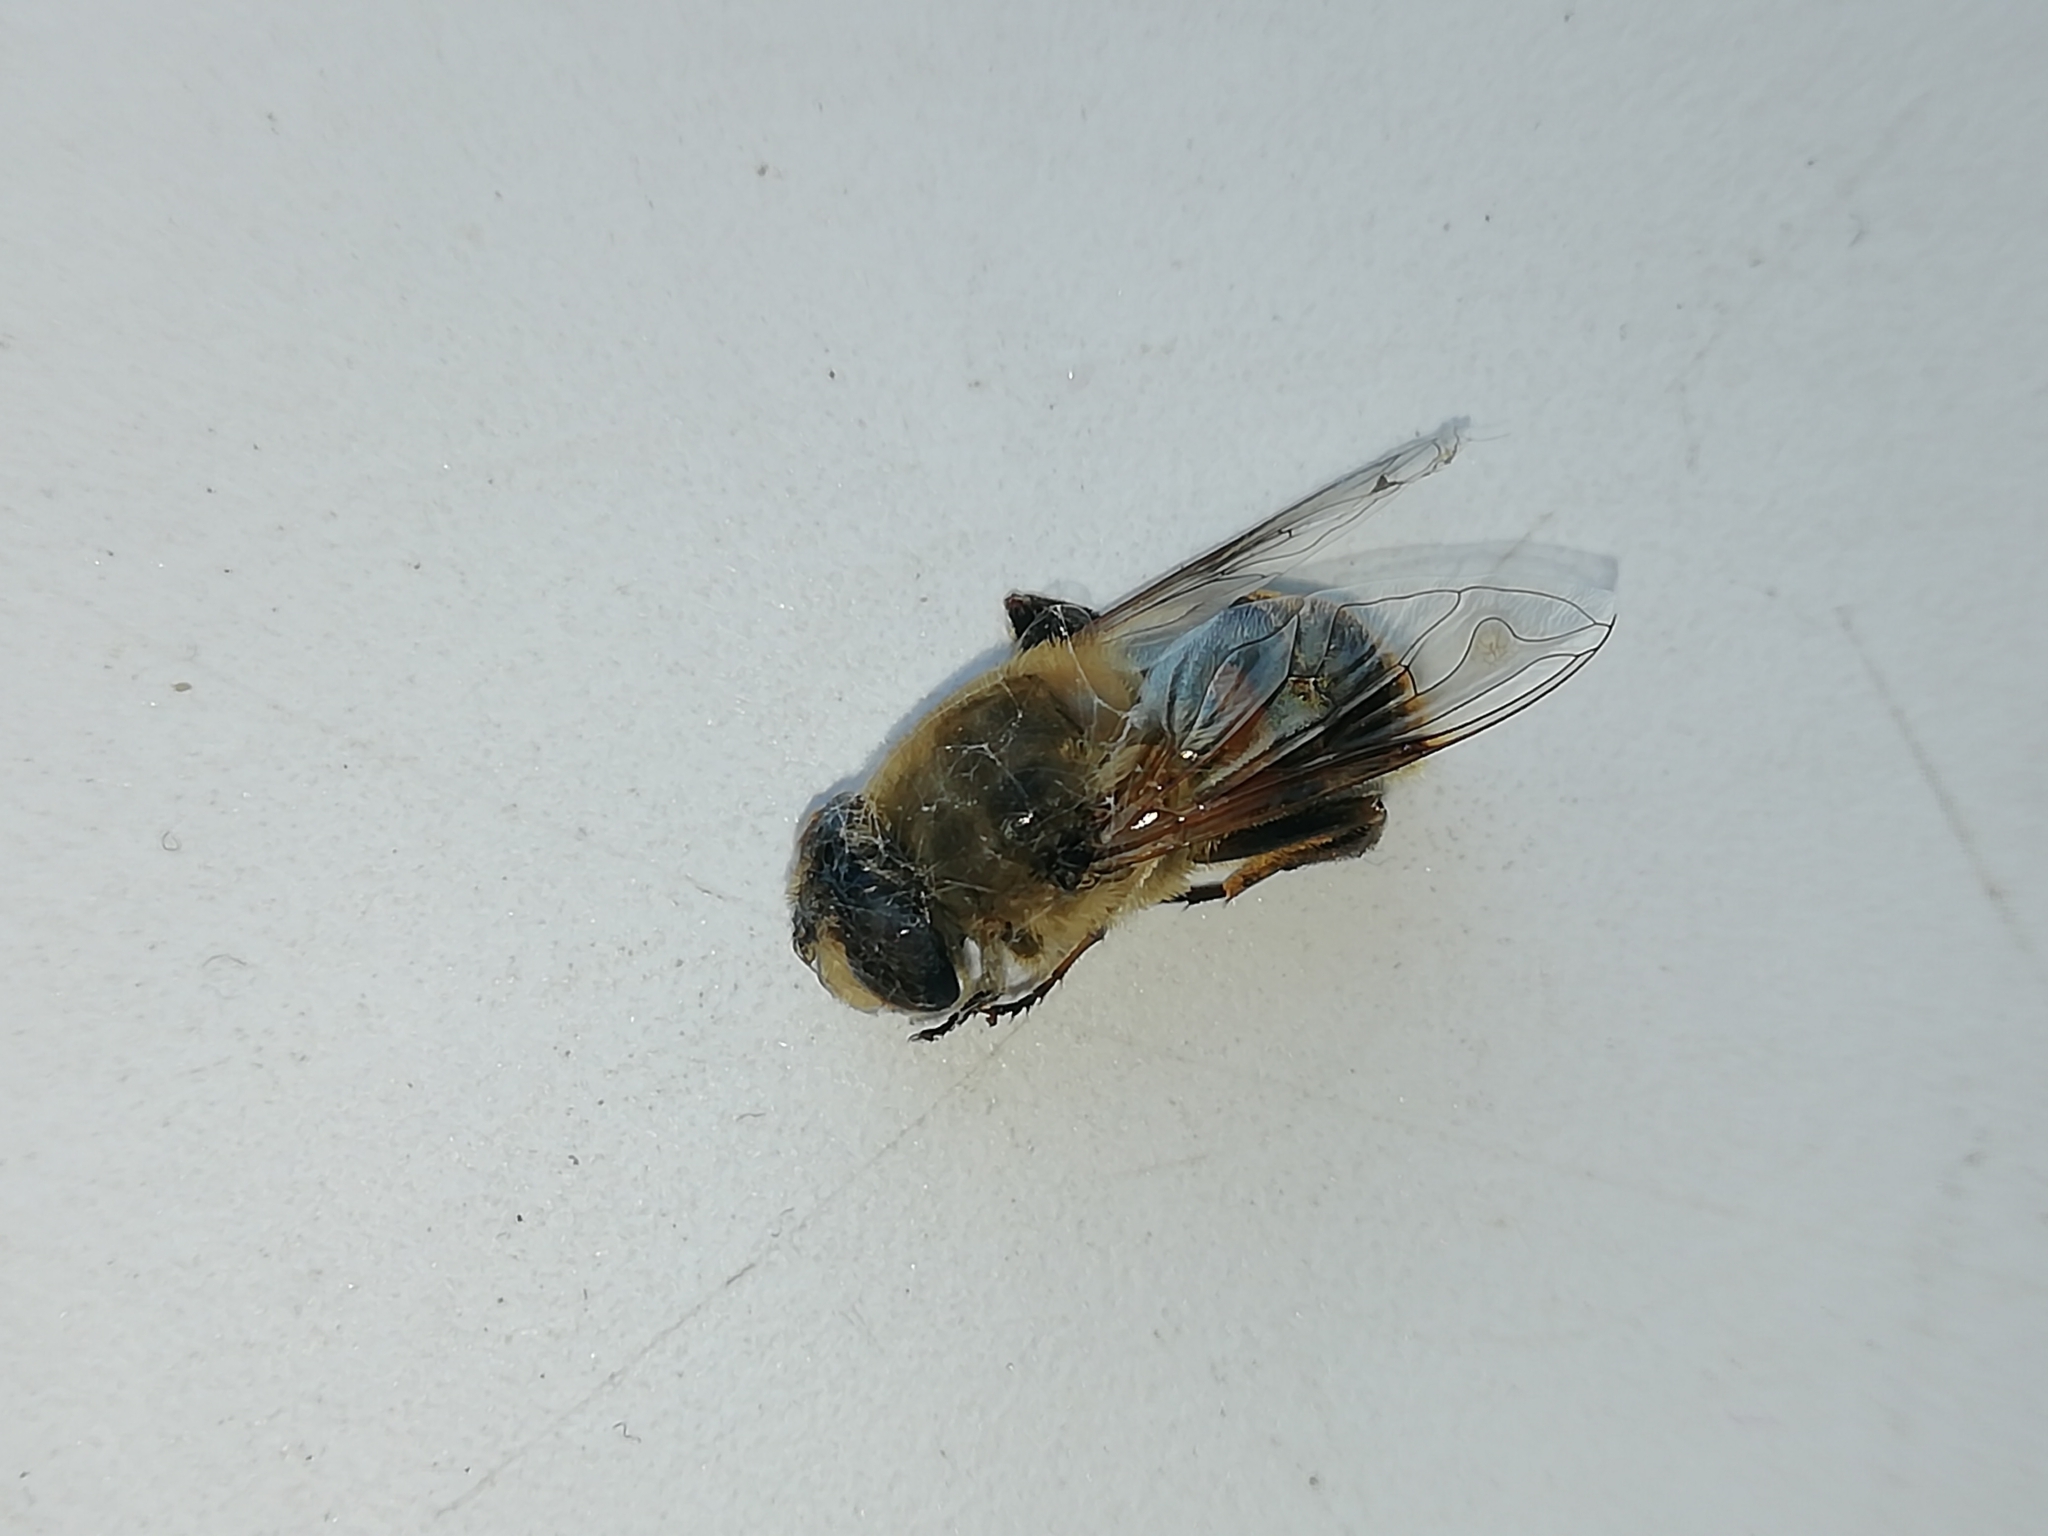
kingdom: Animalia
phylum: Arthropoda
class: Insecta
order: Diptera
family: Syrphidae
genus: Eristalis
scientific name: Eristalis tenax
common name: Drone fly
